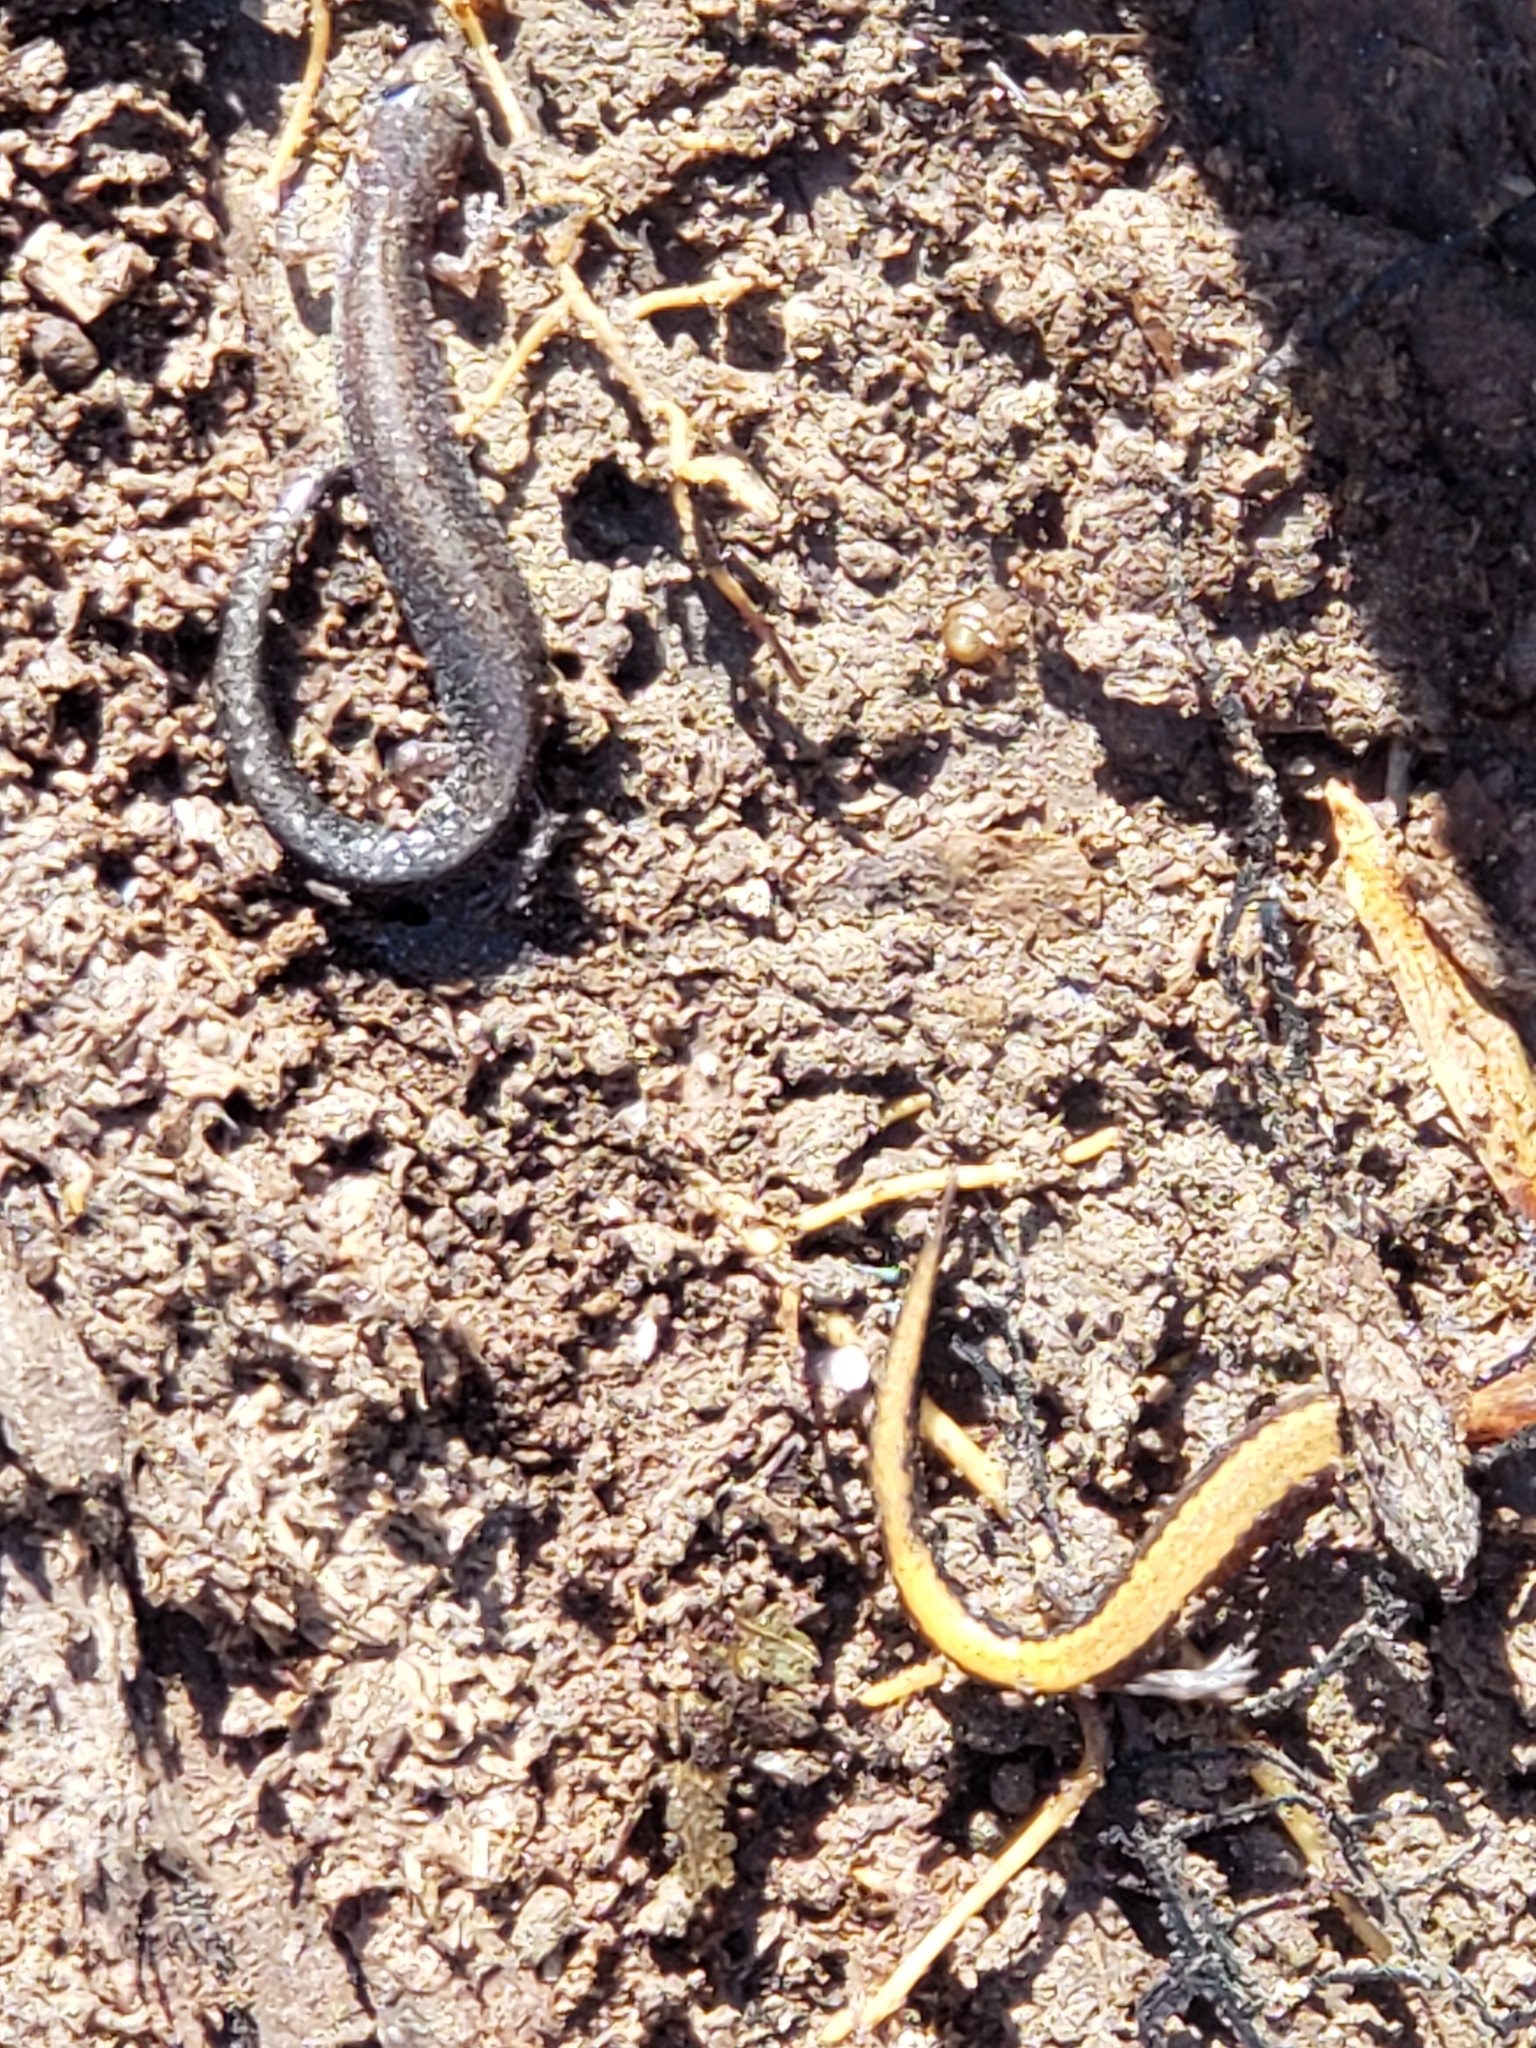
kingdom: Animalia
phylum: Chordata
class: Amphibia
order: Caudata
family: Plethodontidae
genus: Plethodon
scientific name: Plethodon cinereus
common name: Redback salamander
